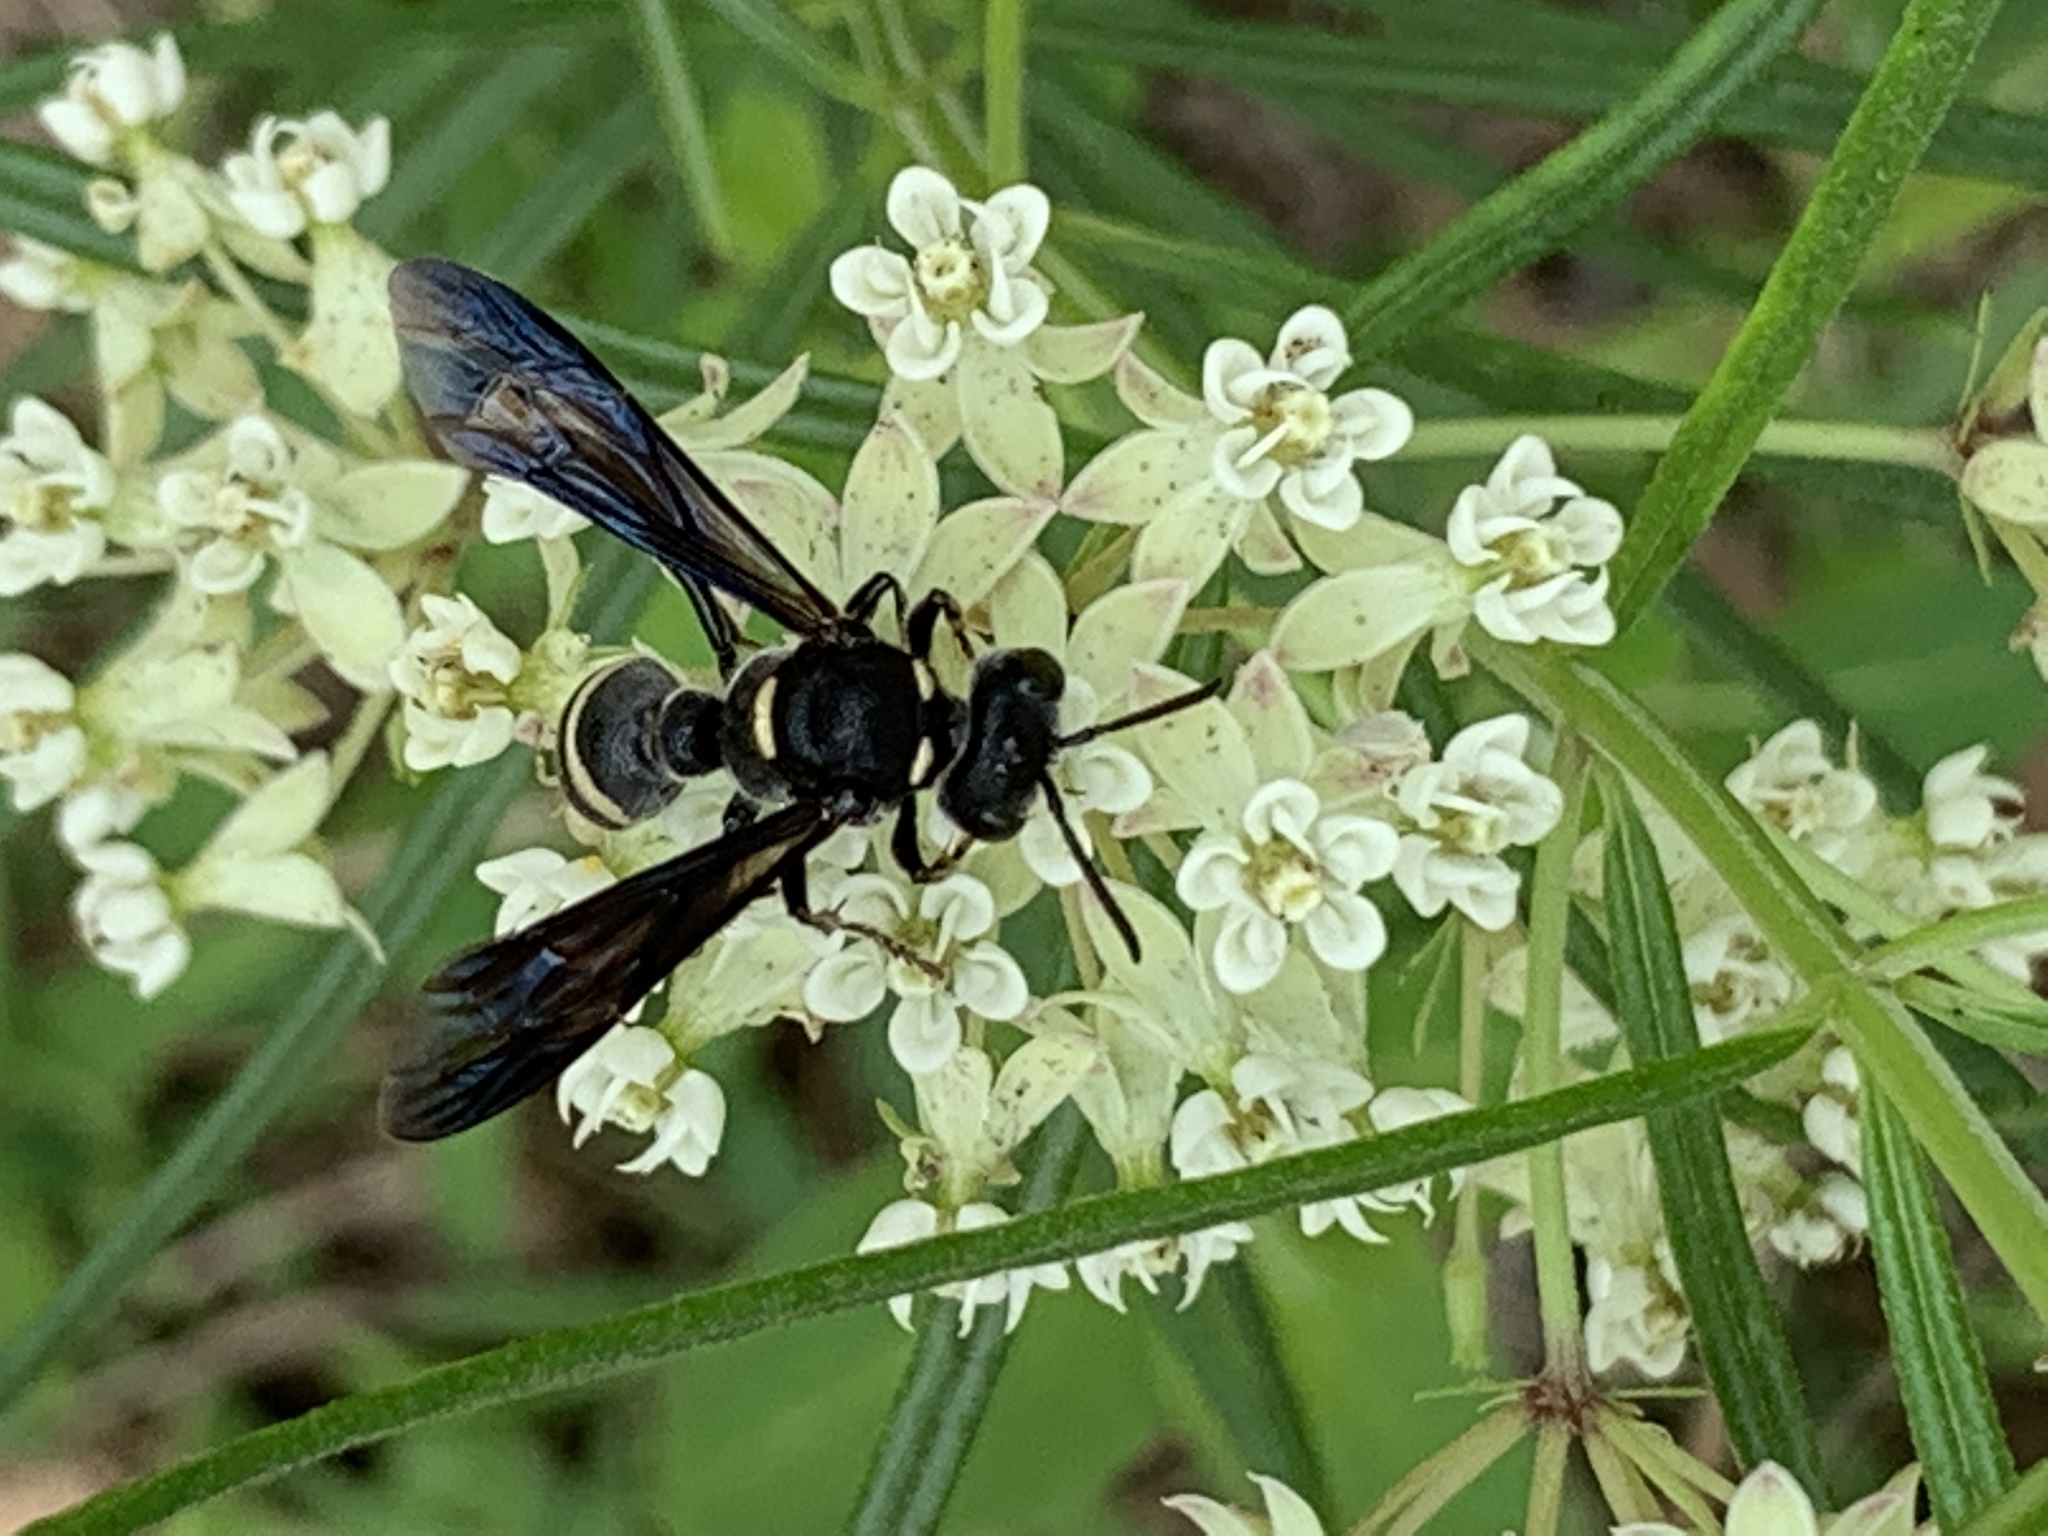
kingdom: Animalia
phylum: Arthropoda
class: Insecta
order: Hymenoptera
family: Crabronidae
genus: Cerceris
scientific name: Cerceris fumipennis
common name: Smokey-winged beetle bandit wasp
